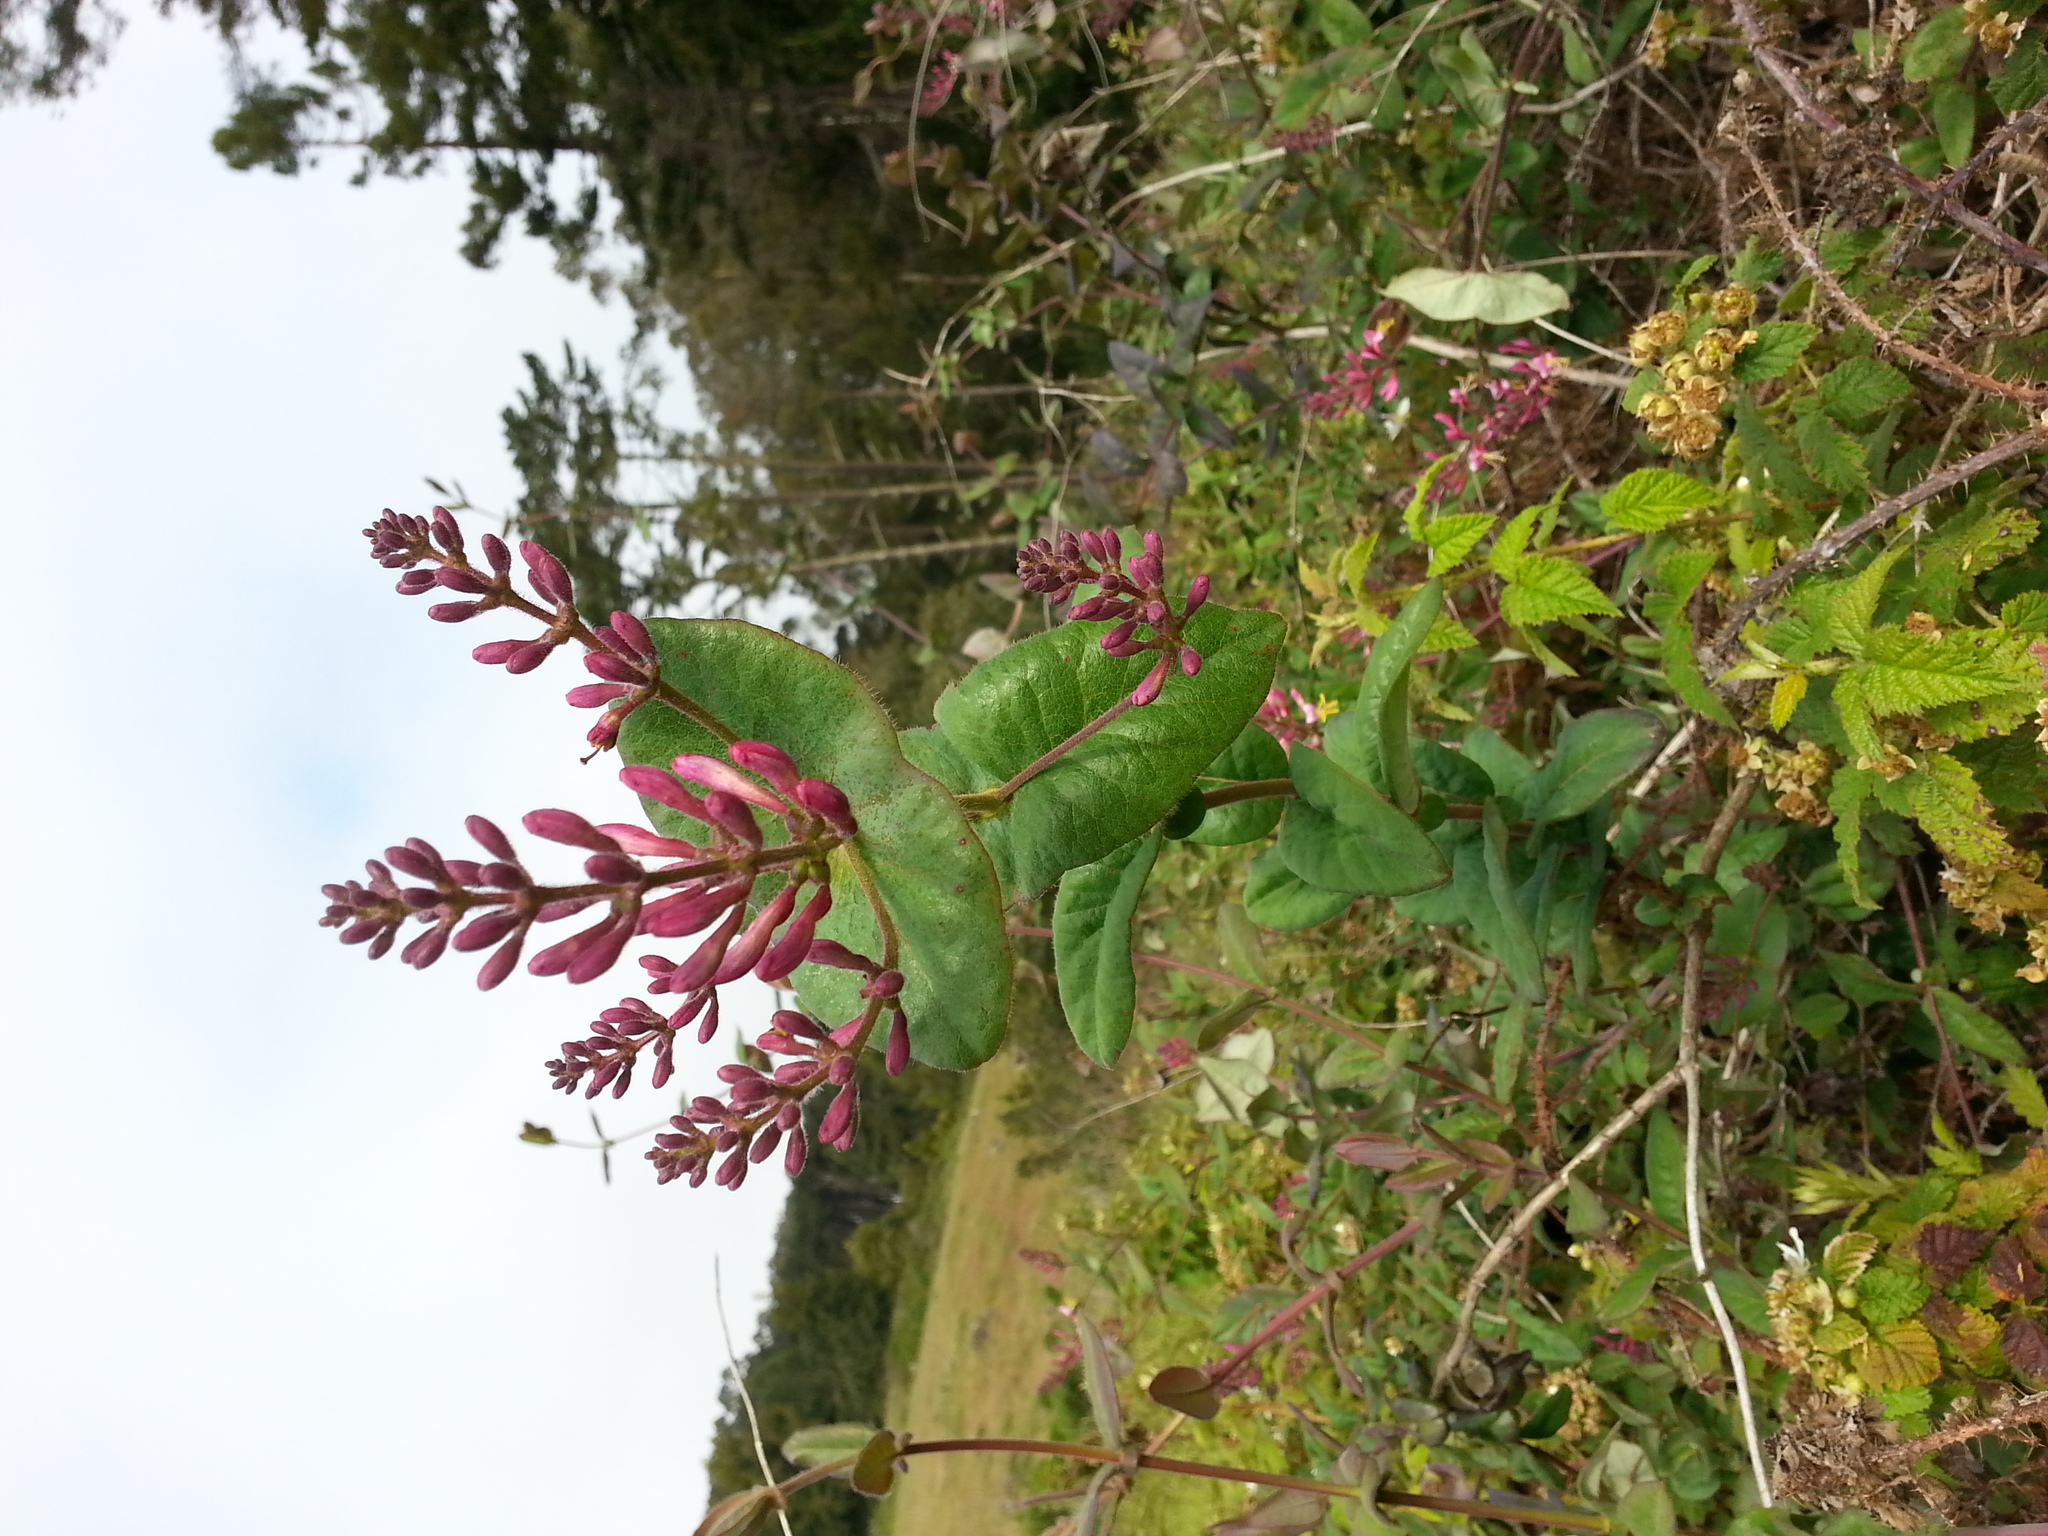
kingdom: Plantae
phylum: Tracheophyta
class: Magnoliopsida
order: Dipsacales
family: Caprifoliaceae
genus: Lonicera
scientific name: Lonicera hispidula
